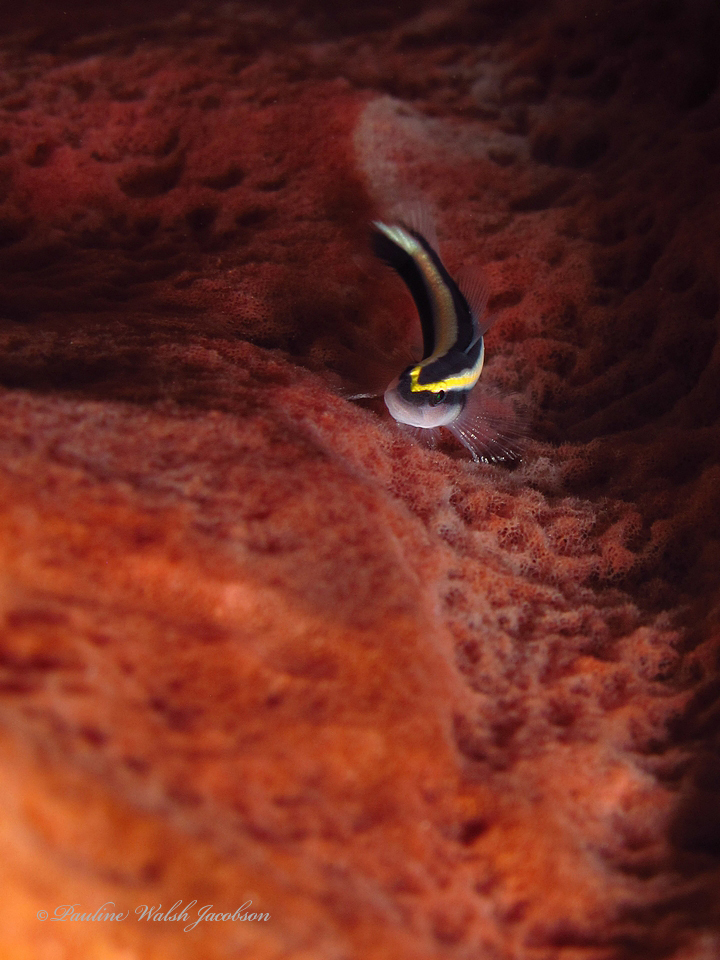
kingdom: Animalia
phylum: Chordata
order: Perciformes
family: Gobiidae
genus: Elacatinus
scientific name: Elacatinus evelynae
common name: Sharknose goby
